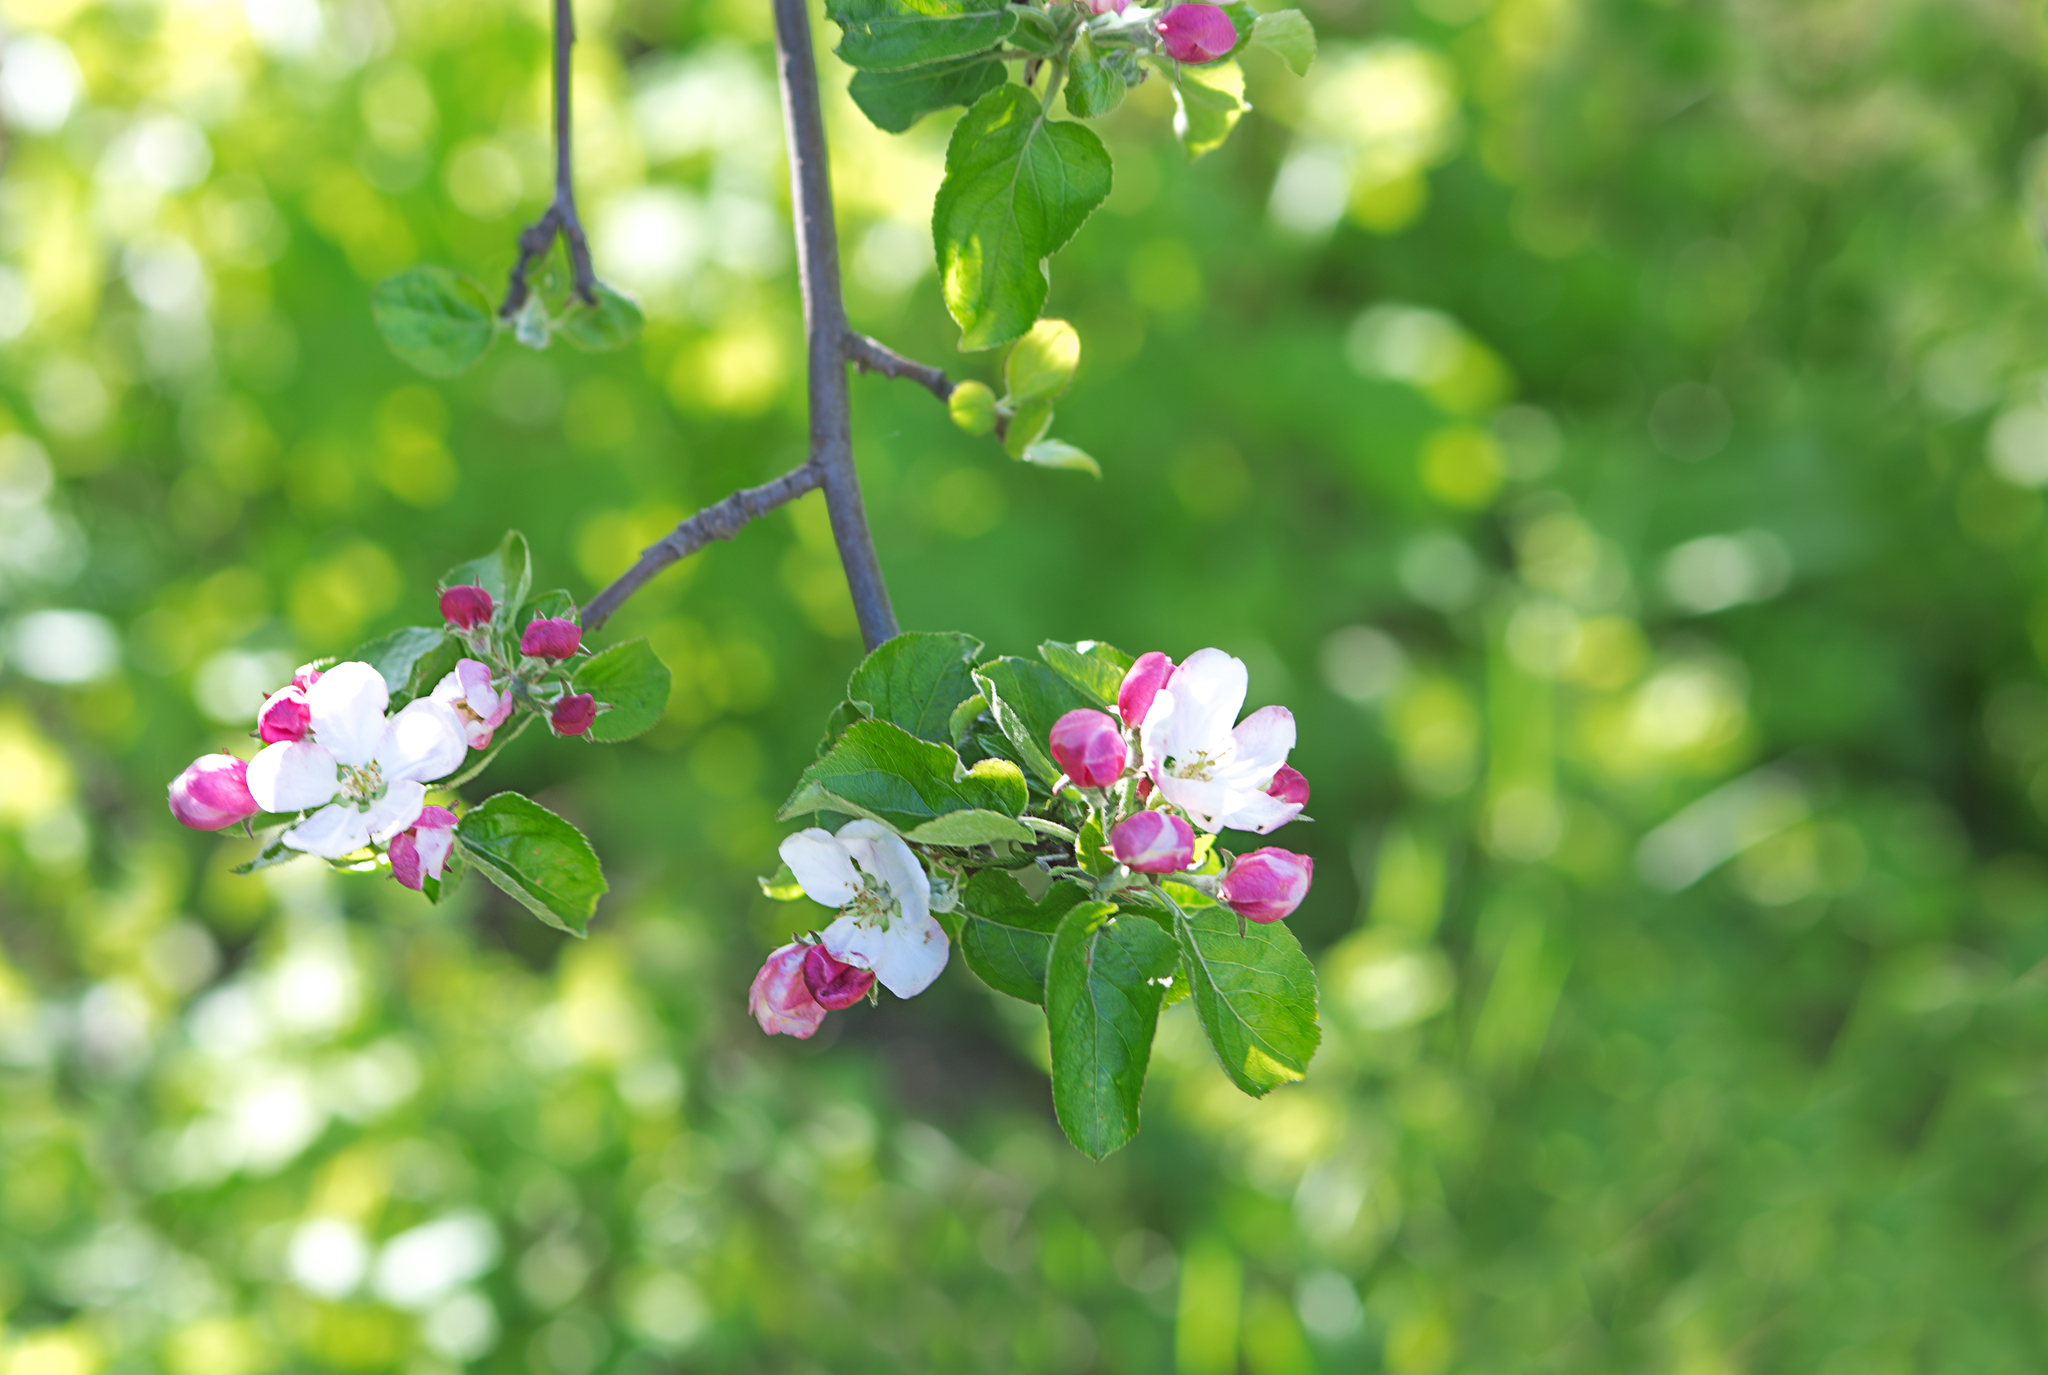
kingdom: Plantae
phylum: Tracheophyta
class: Magnoliopsida
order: Rosales
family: Rosaceae
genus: Malus
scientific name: Malus domestica
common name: Apple
